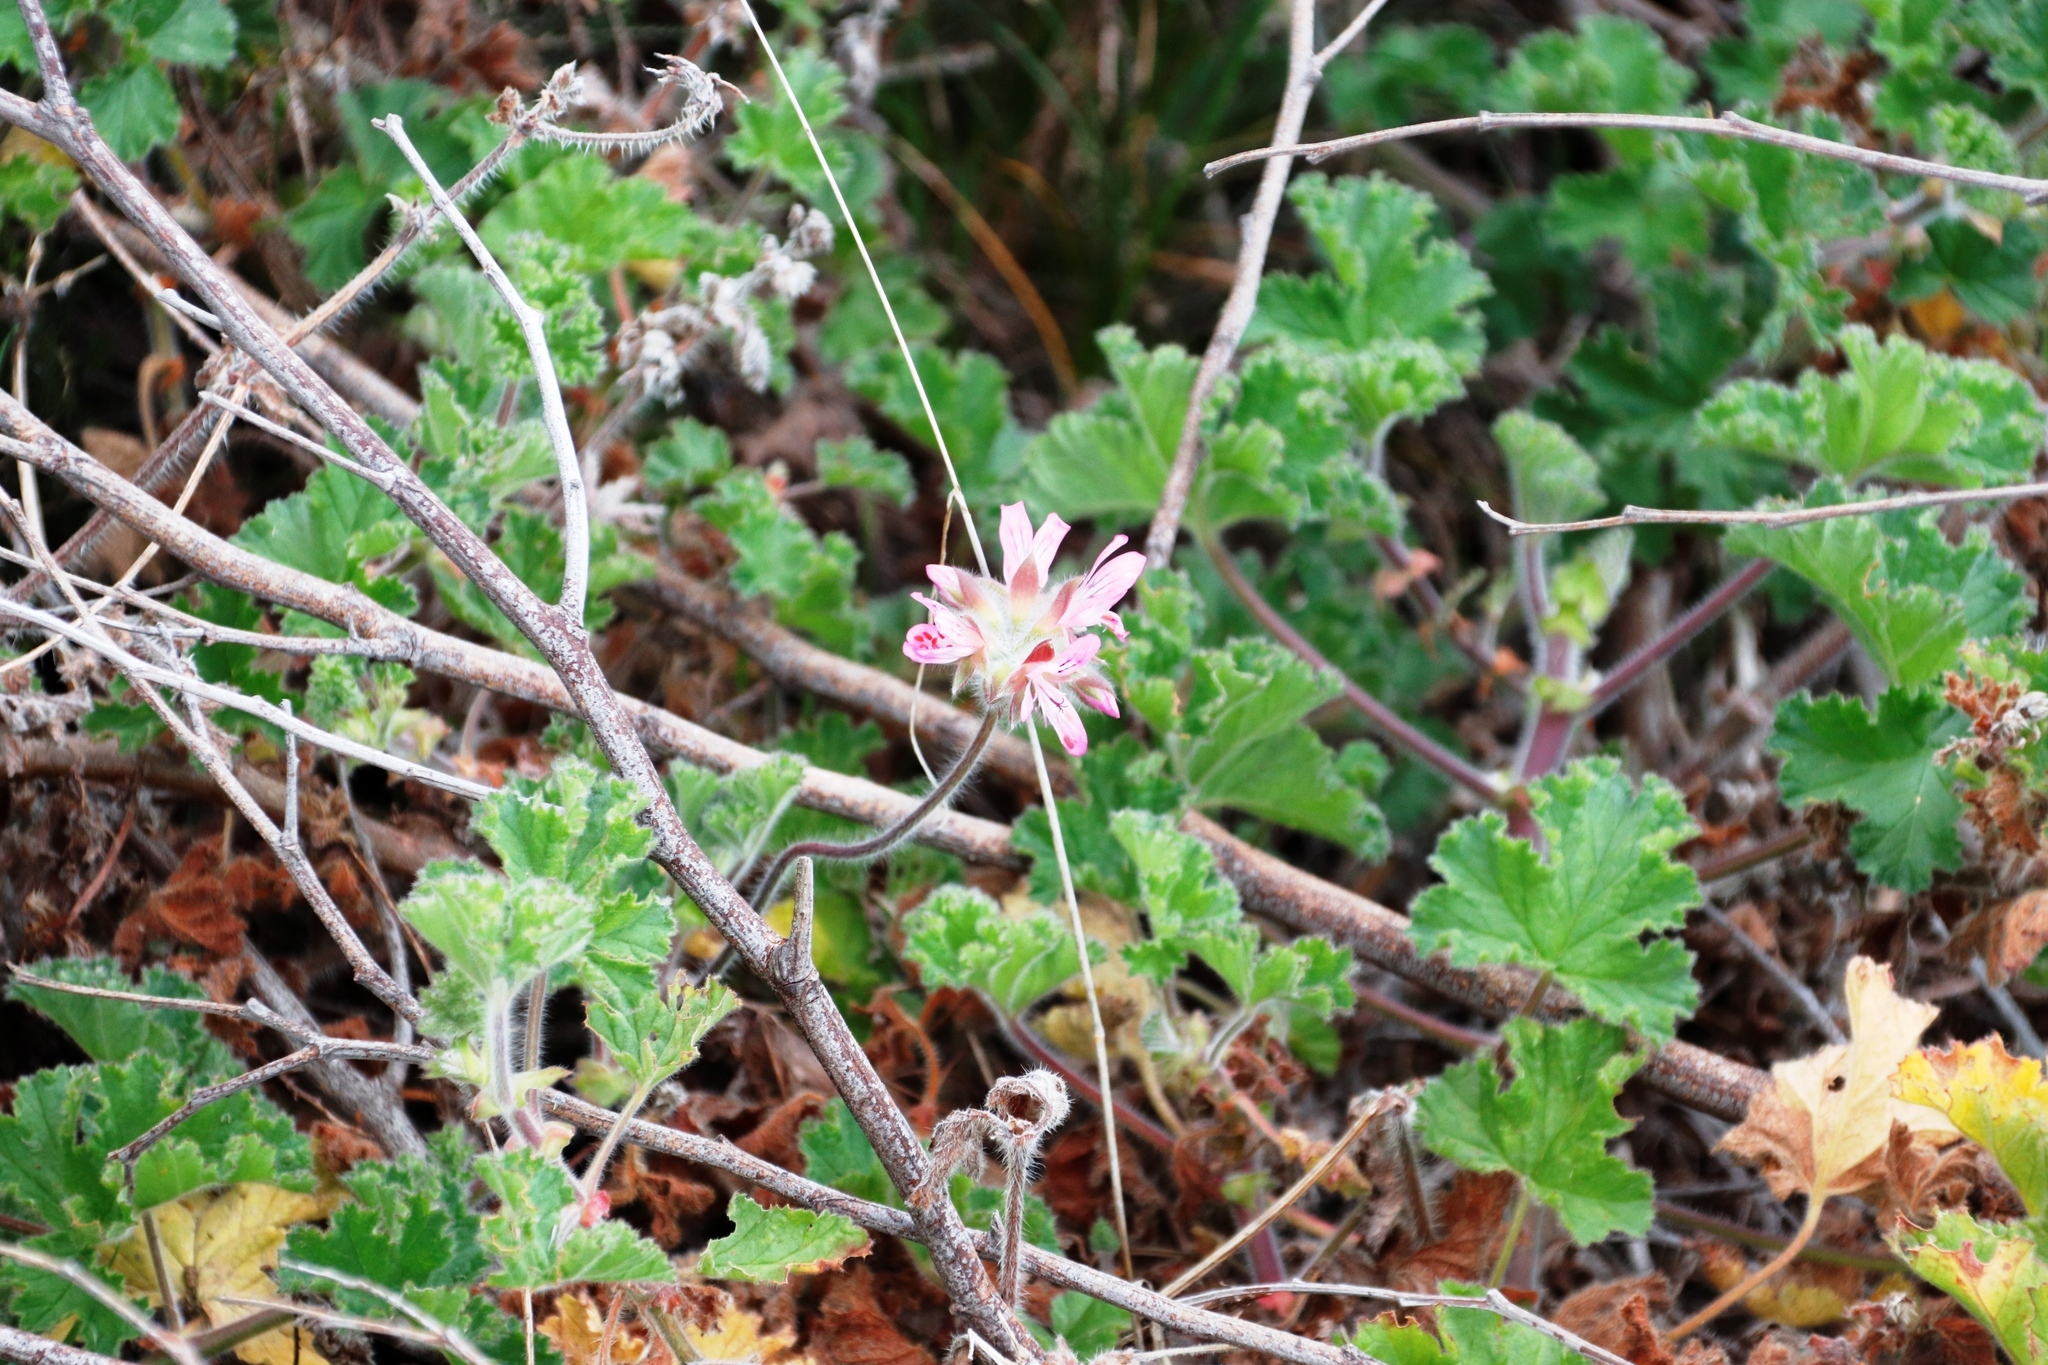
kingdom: Plantae
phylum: Tracheophyta
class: Magnoliopsida
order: Geraniales
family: Geraniaceae
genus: Pelargonium
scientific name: Pelargonium capitatum
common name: Rose scented geranium
